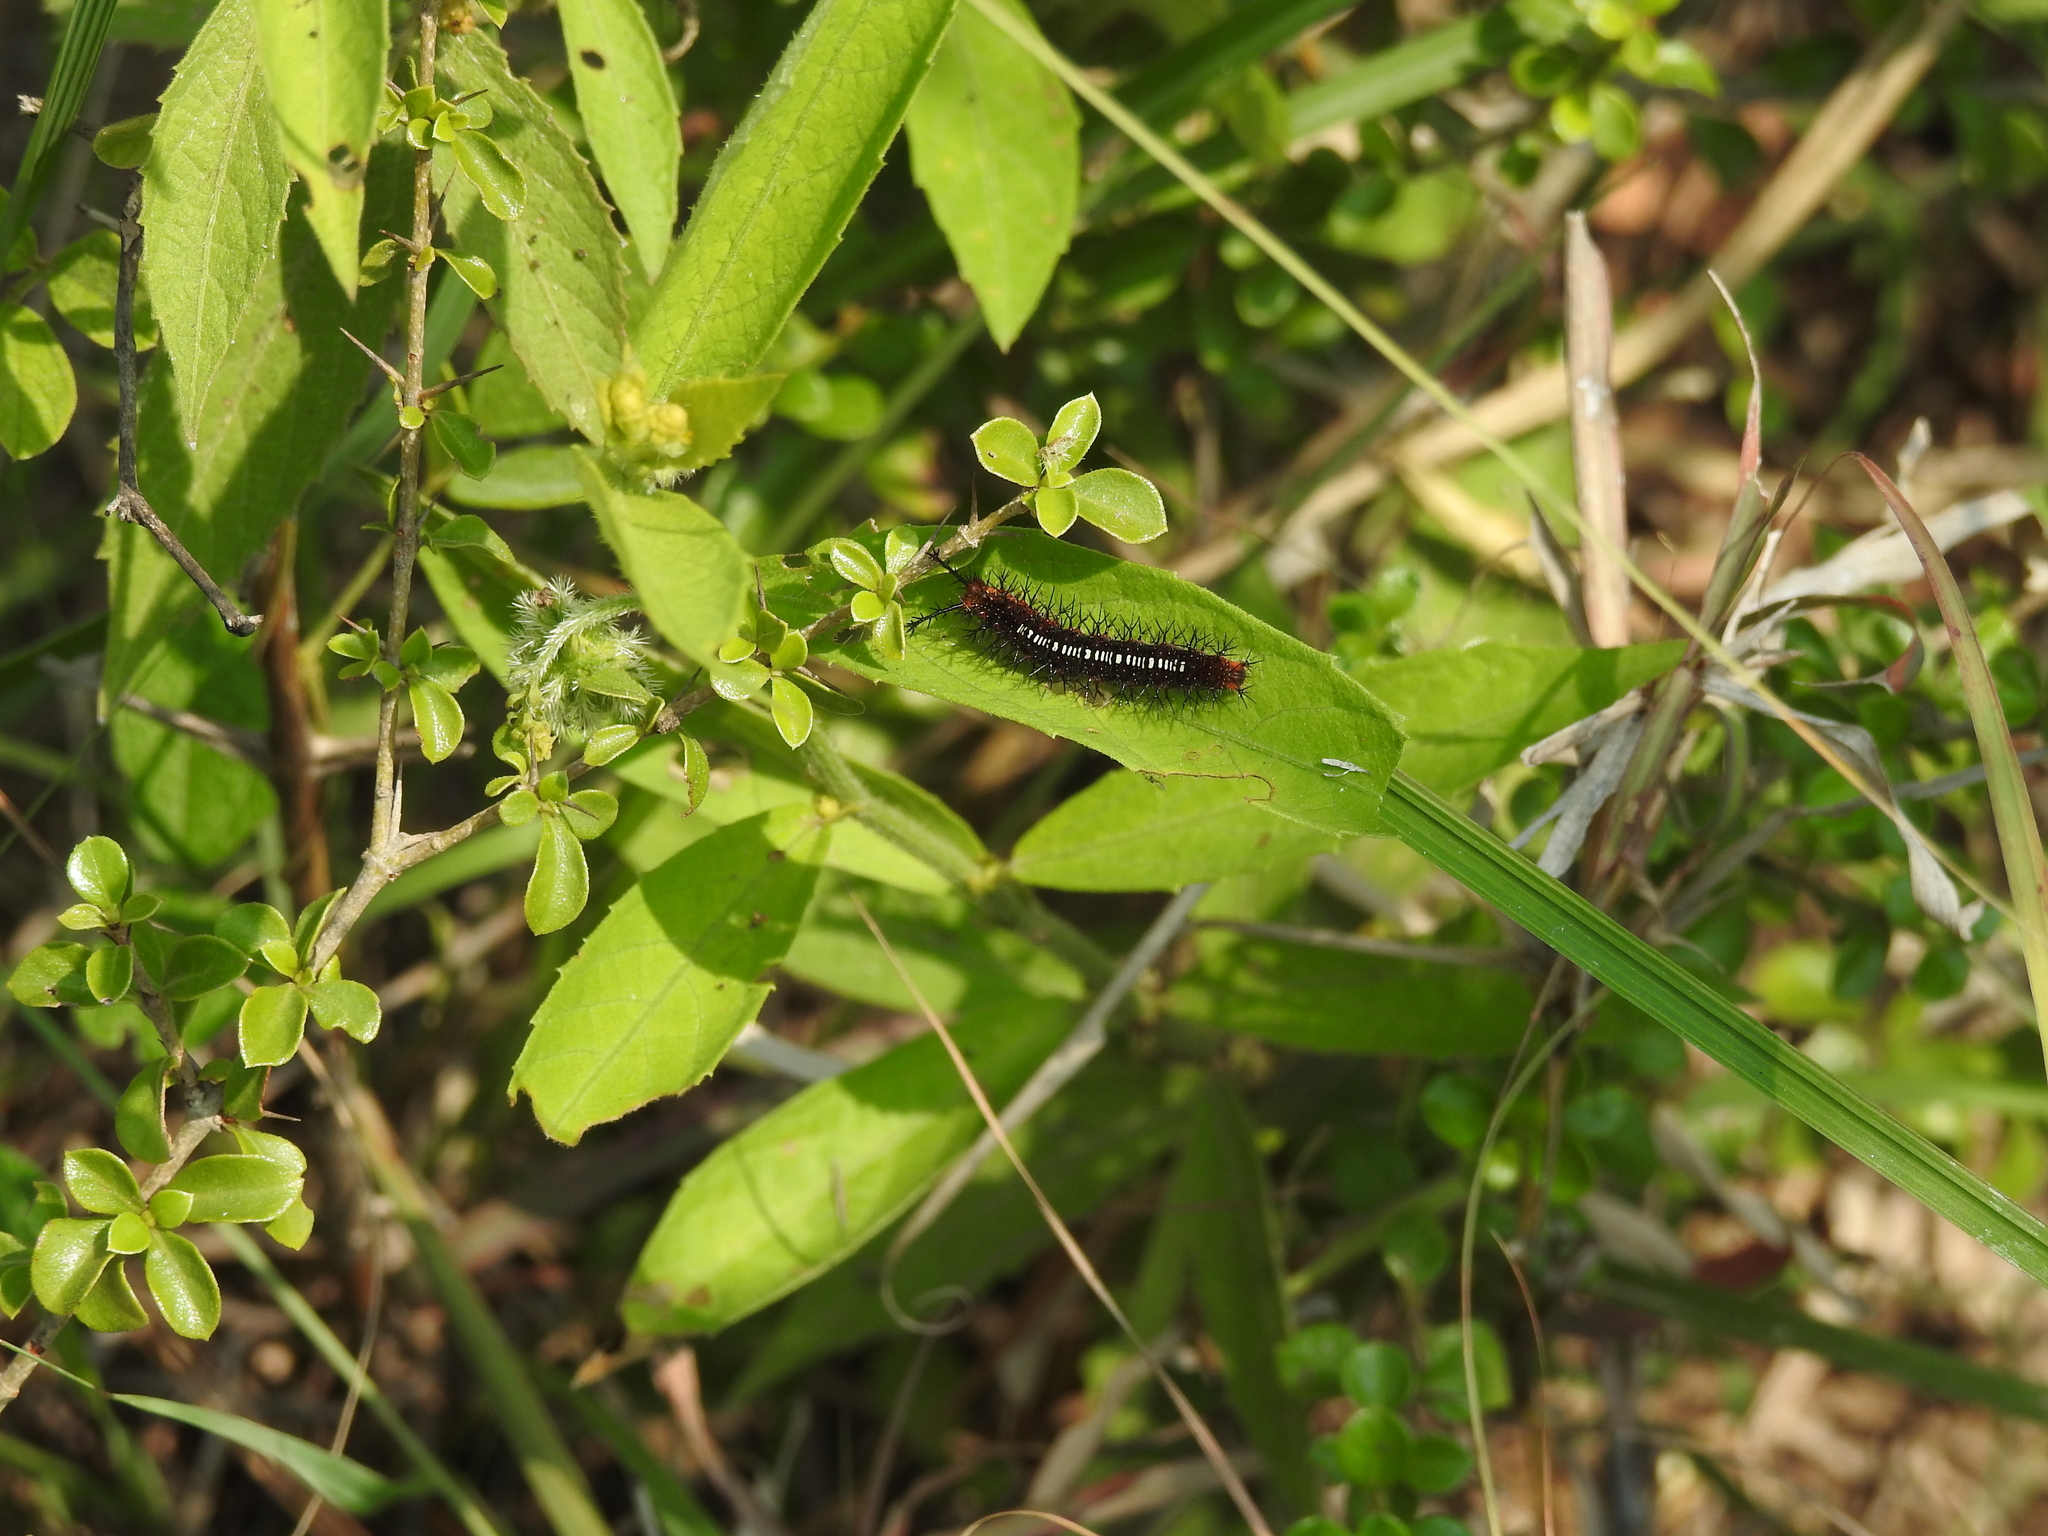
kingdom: Animalia
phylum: Arthropoda
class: Insecta
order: Lepidoptera
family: Nymphalidae
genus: Ariadne
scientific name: Ariadne ariadne
